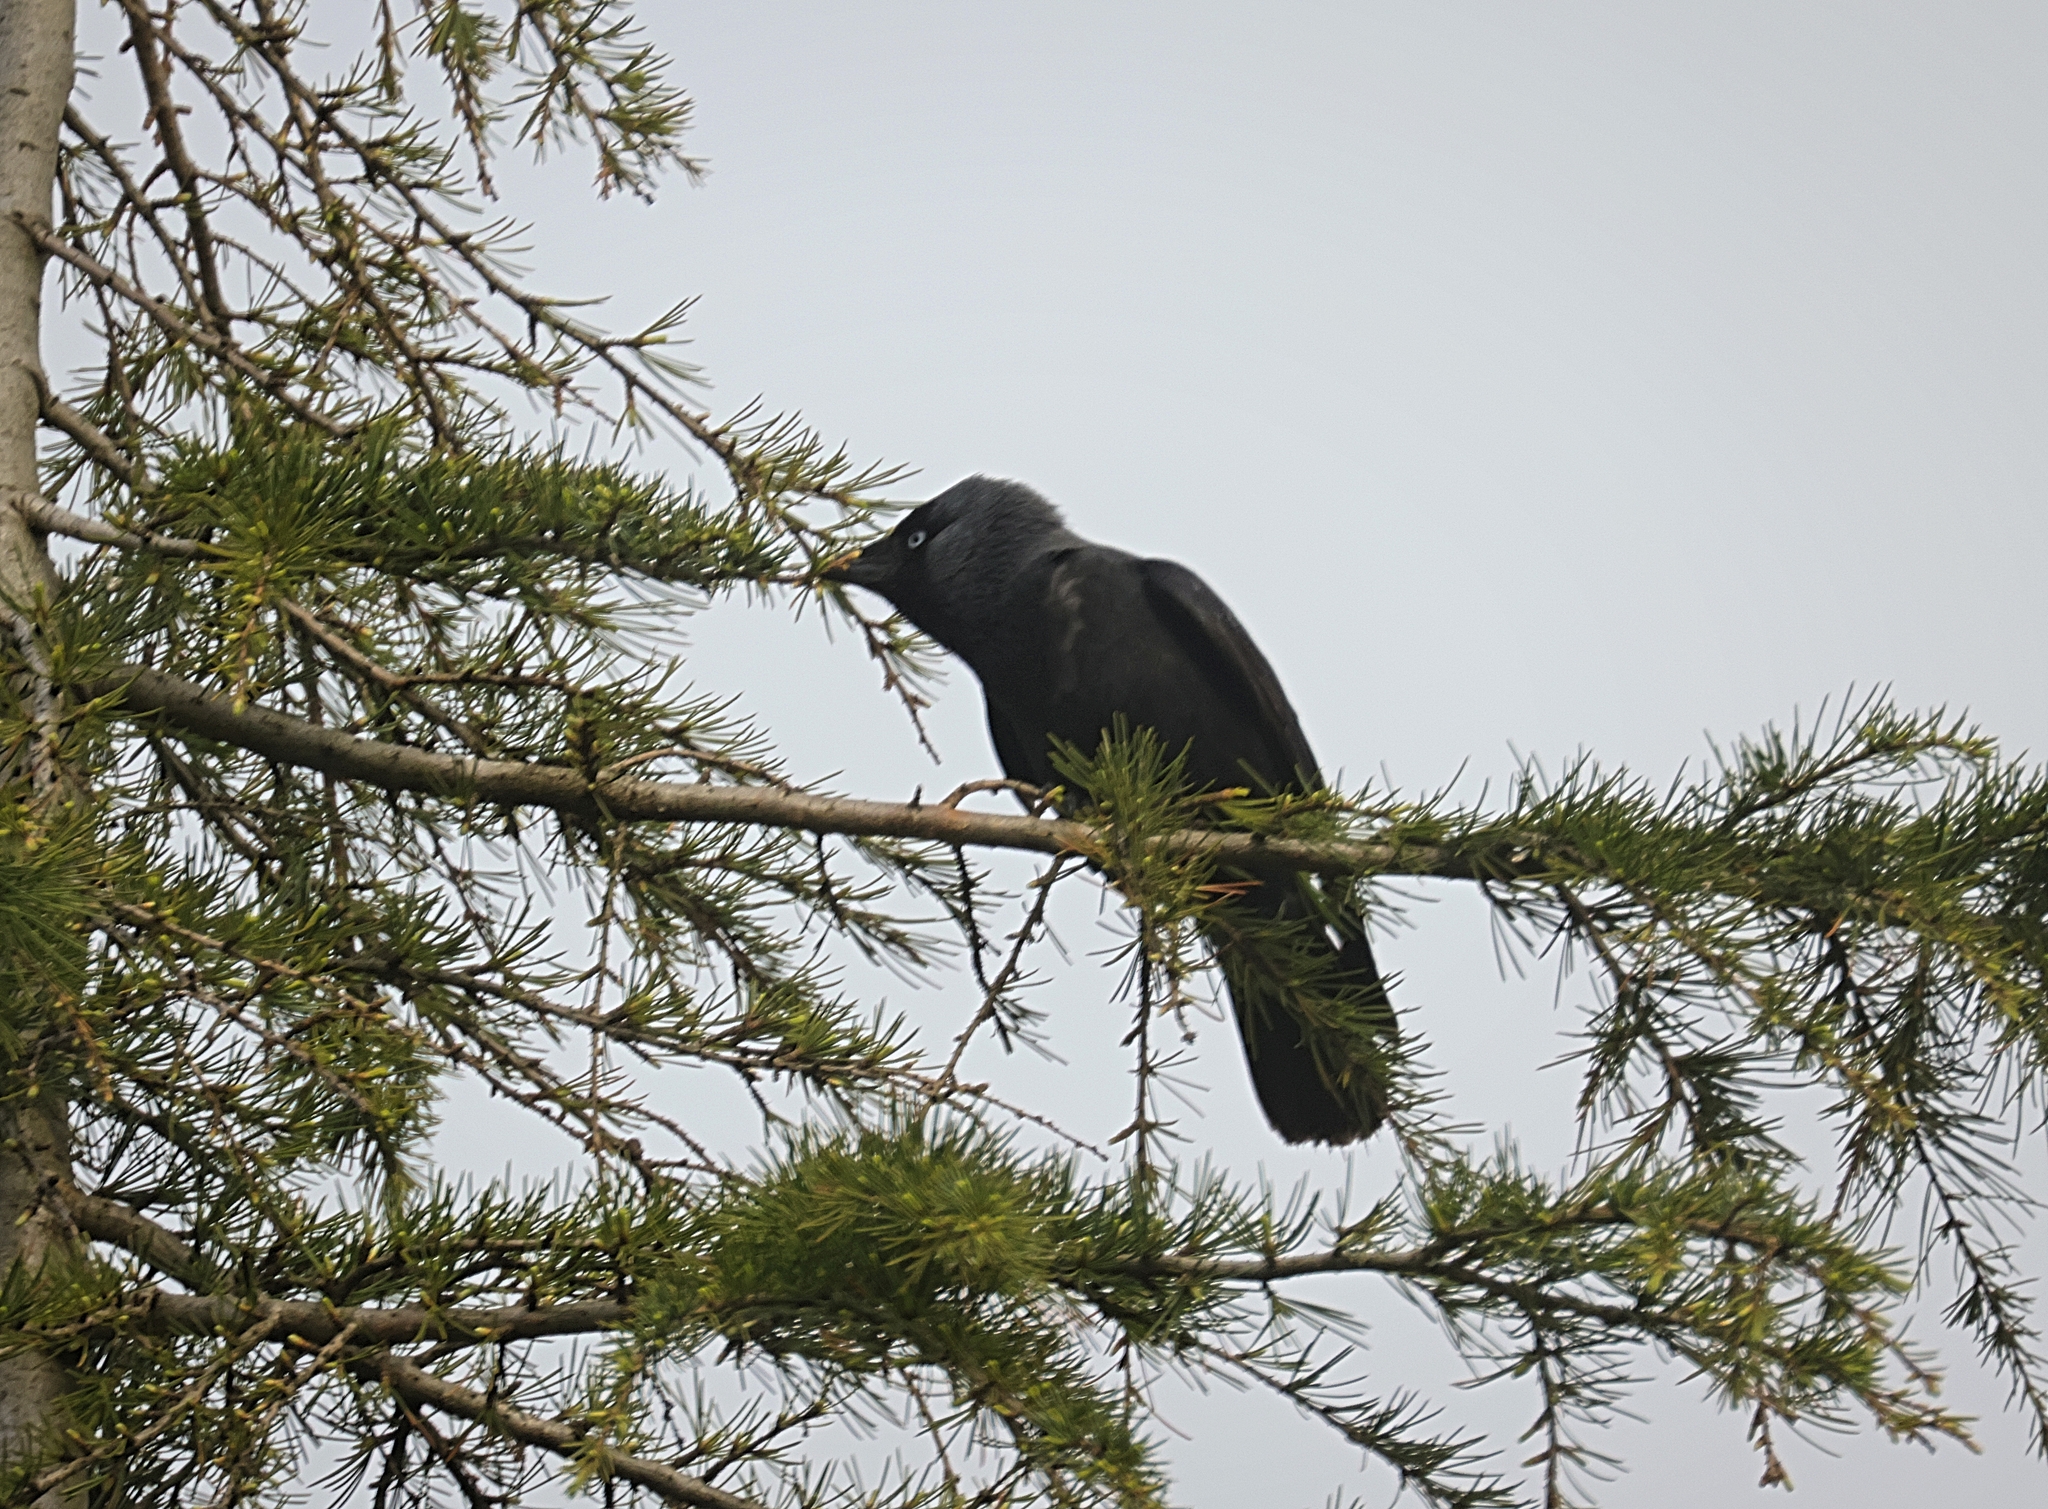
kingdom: Animalia
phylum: Chordata
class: Aves
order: Passeriformes
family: Corvidae
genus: Coloeus
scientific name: Coloeus monedula
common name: Western jackdaw
